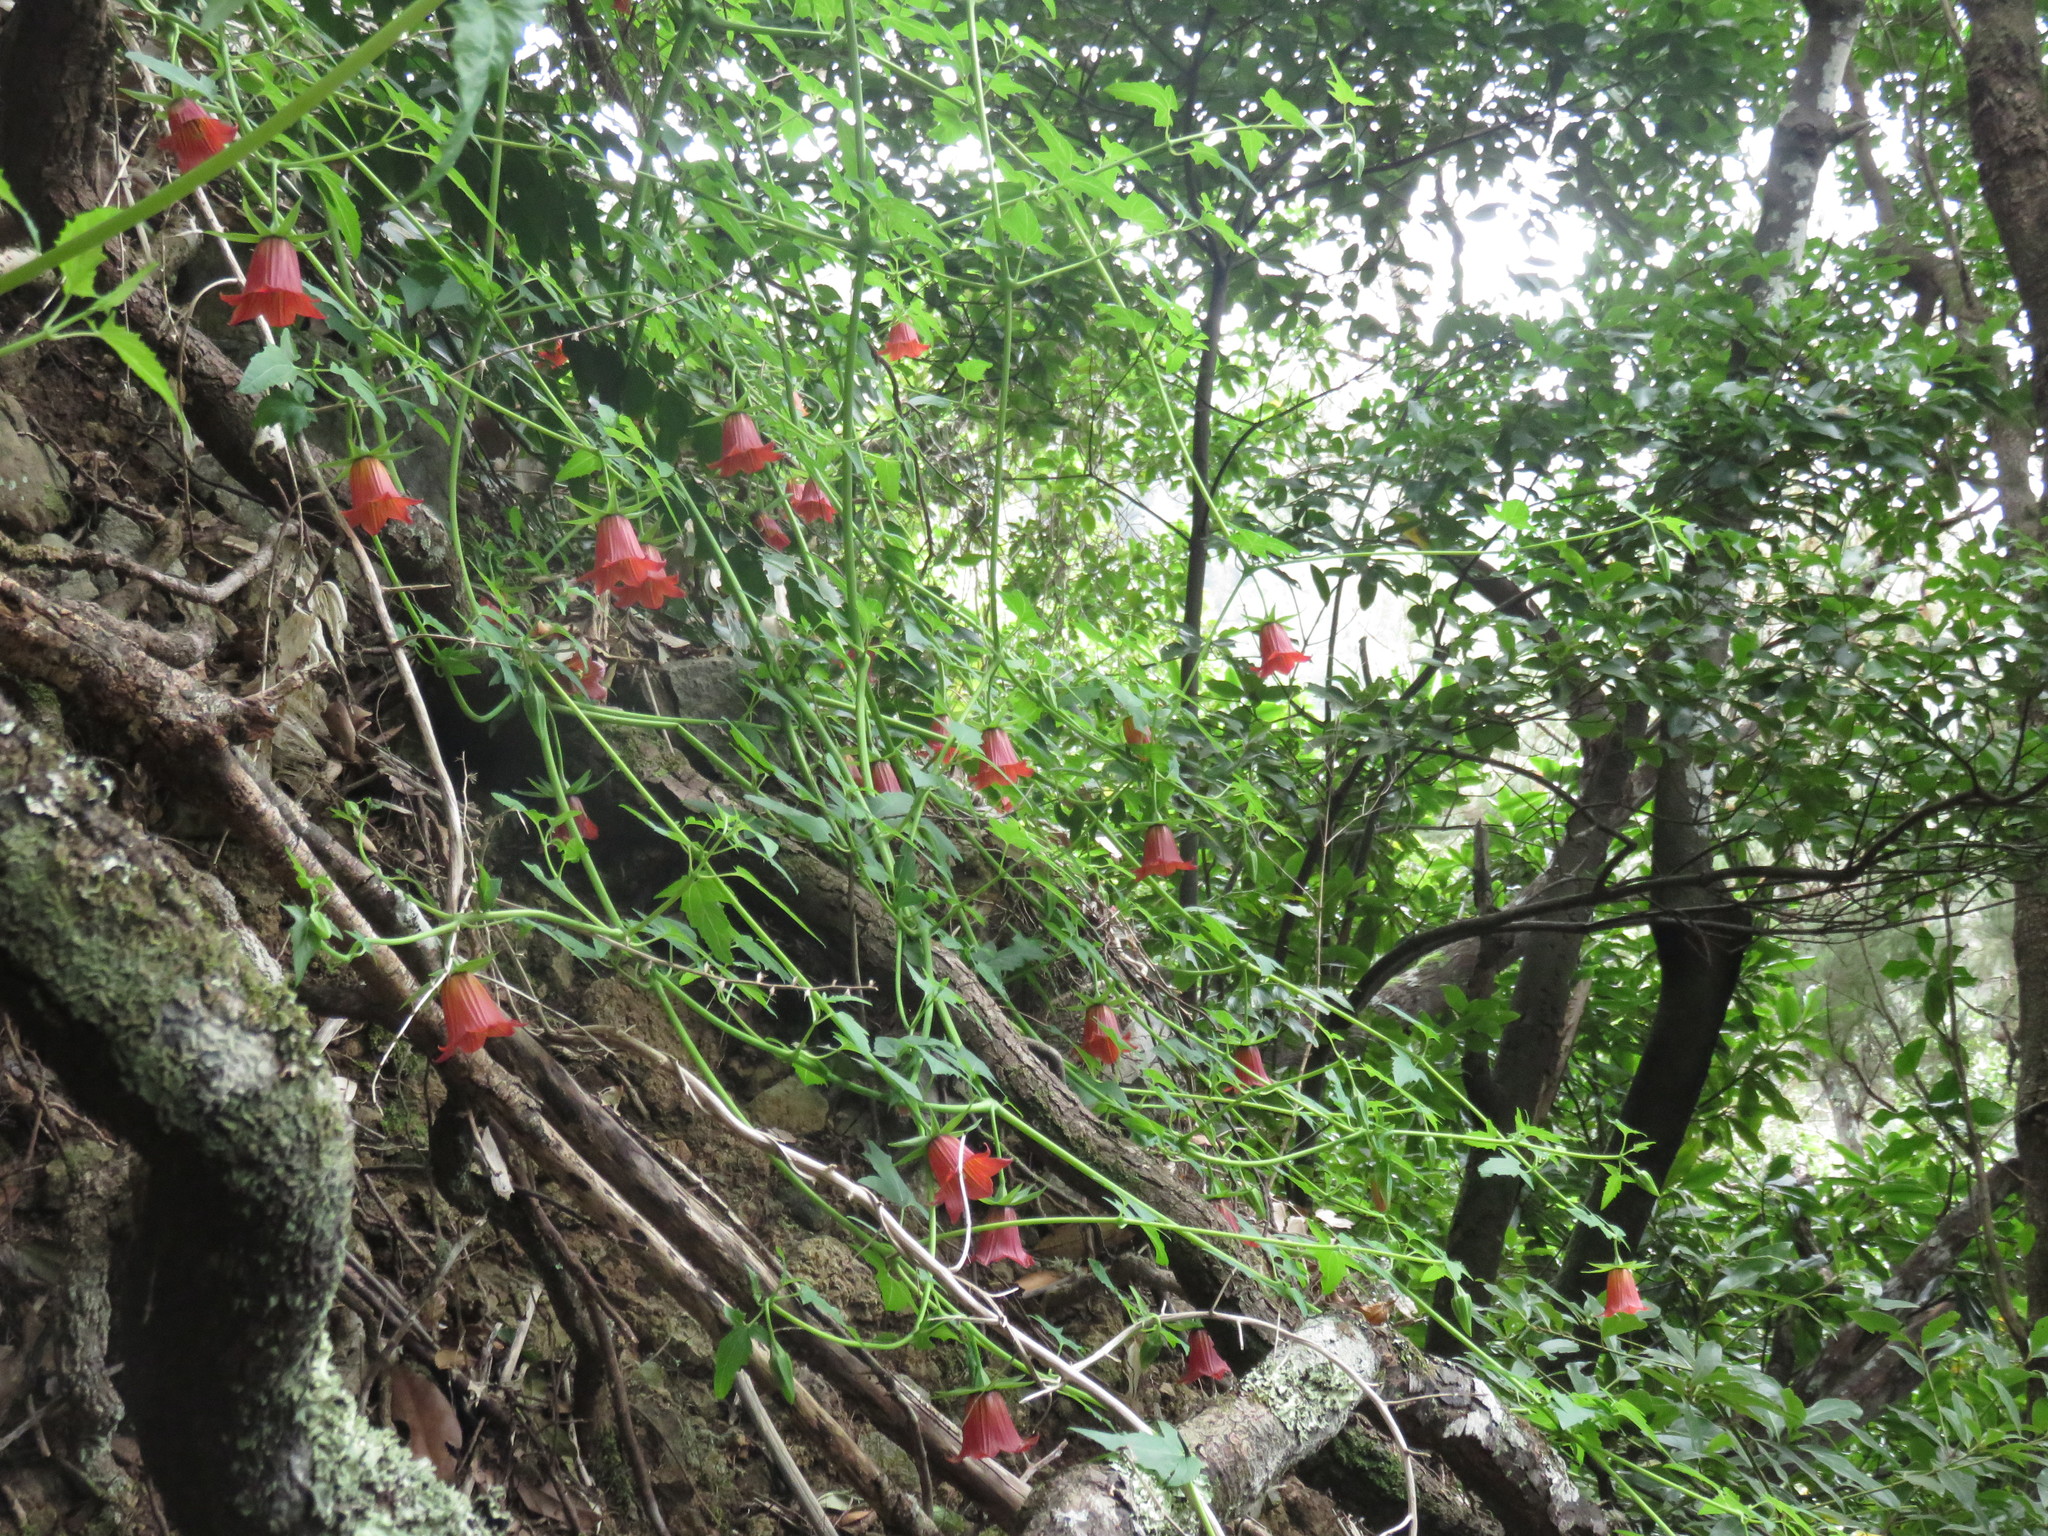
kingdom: Plantae
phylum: Tracheophyta
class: Magnoliopsida
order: Asterales
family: Campanulaceae
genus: Canarina
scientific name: Canarina canariensis
